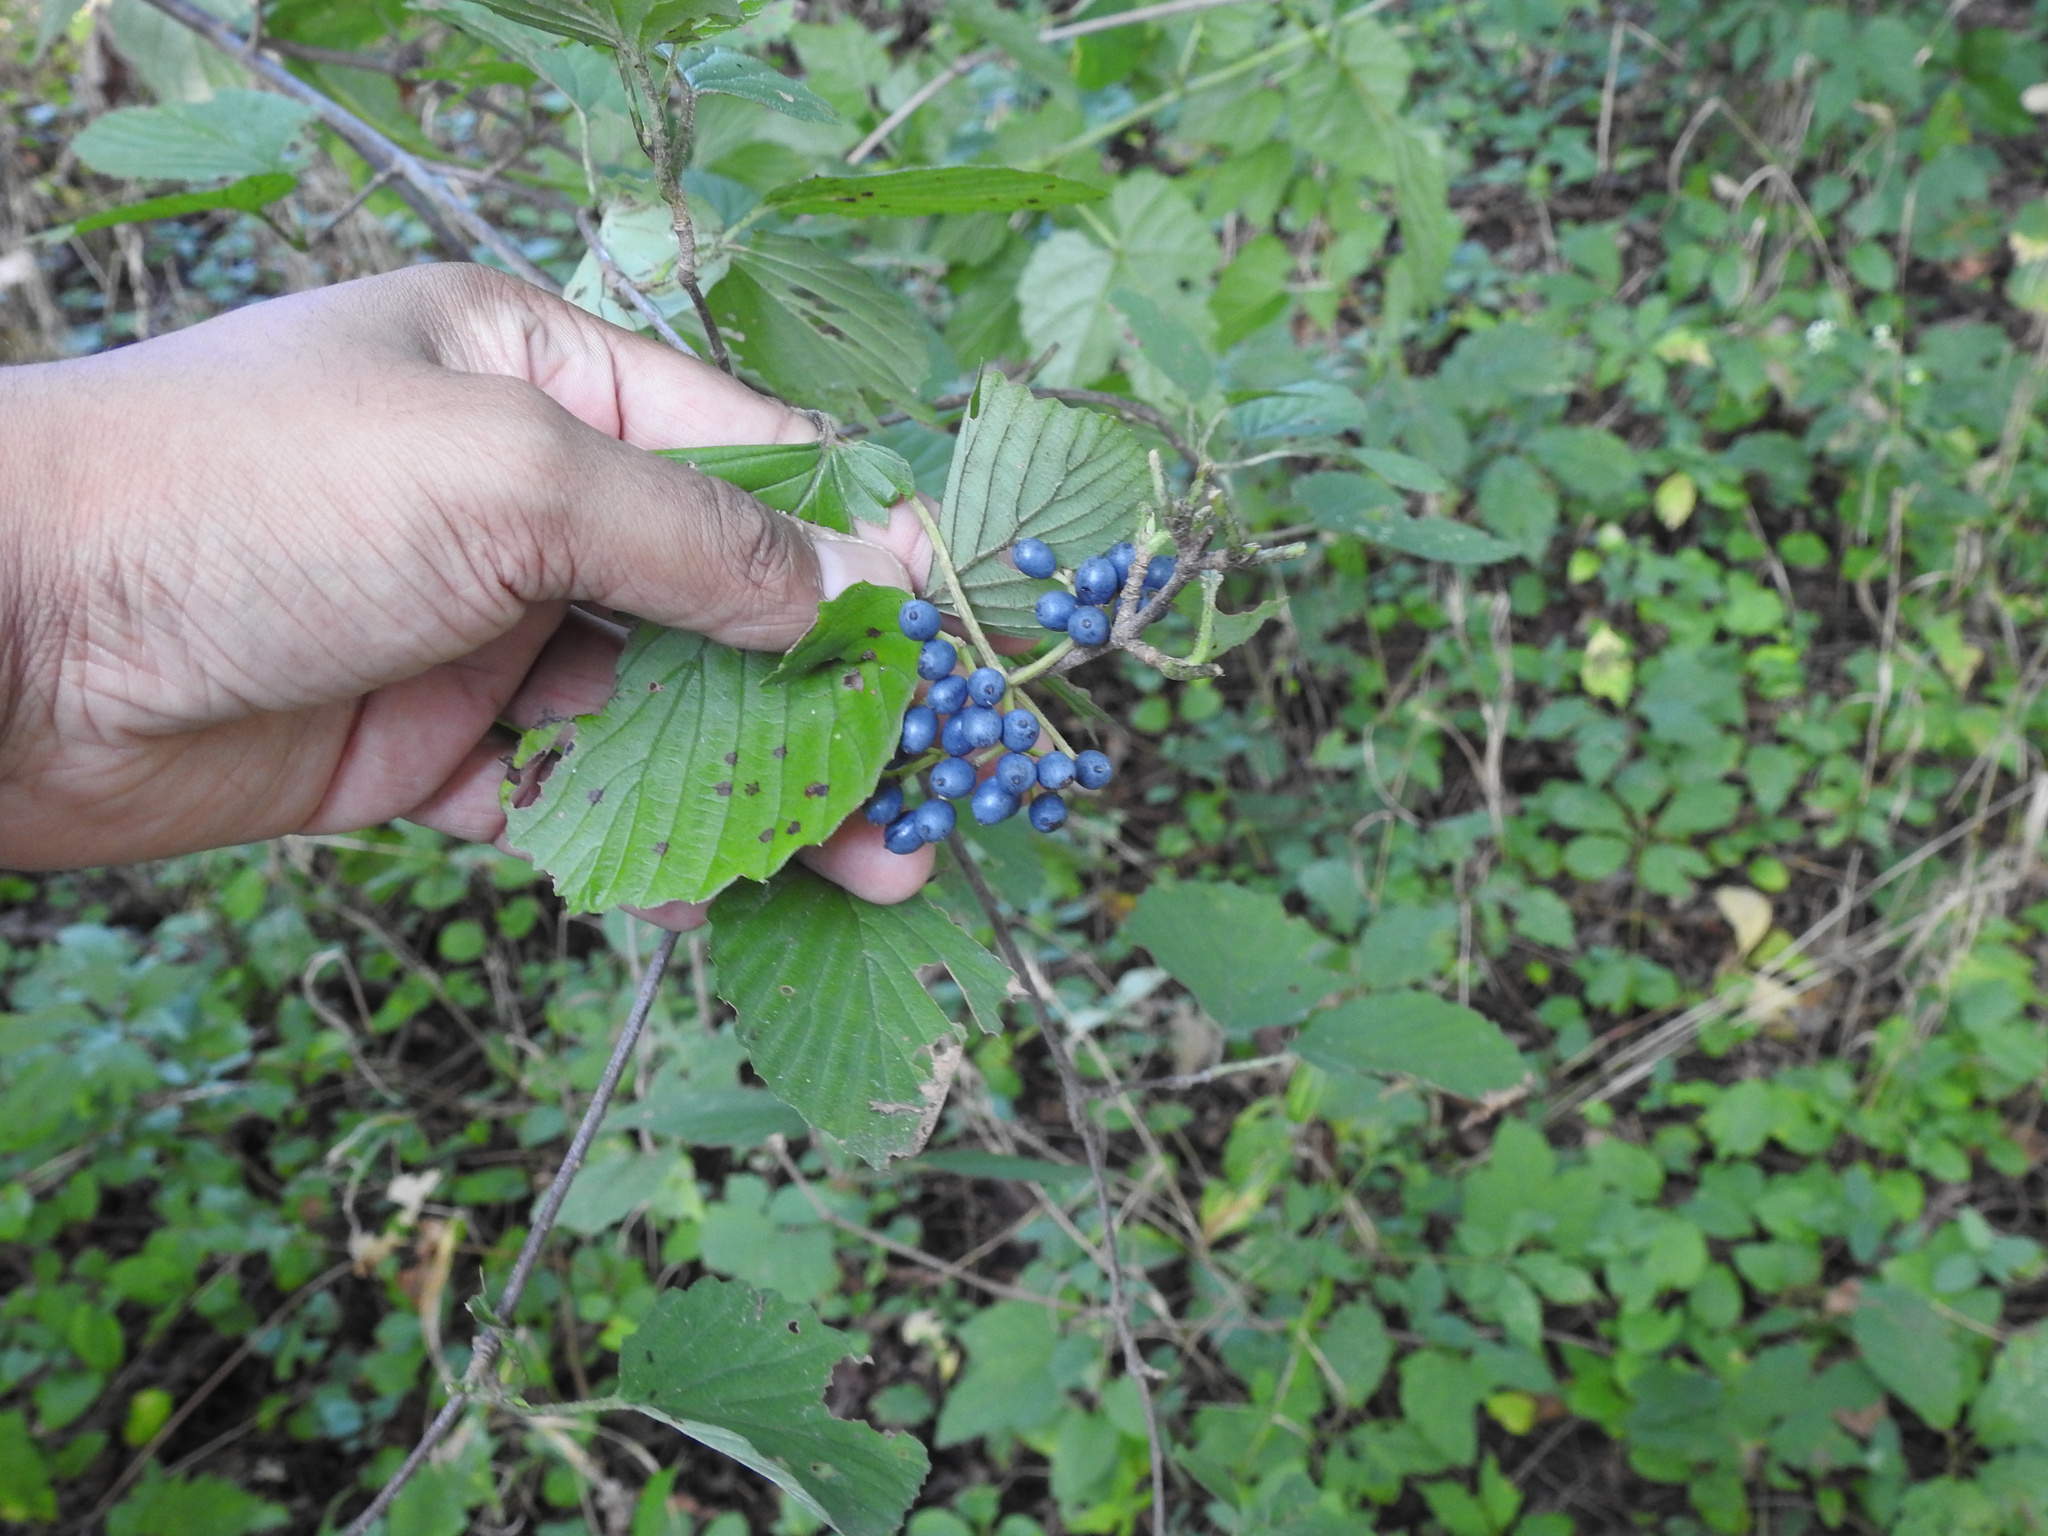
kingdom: Plantae
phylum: Tracheophyta
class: Magnoliopsida
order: Dipsacales
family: Viburnaceae
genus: Viburnum
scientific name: Viburnum dentatum
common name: Arrow-wood
